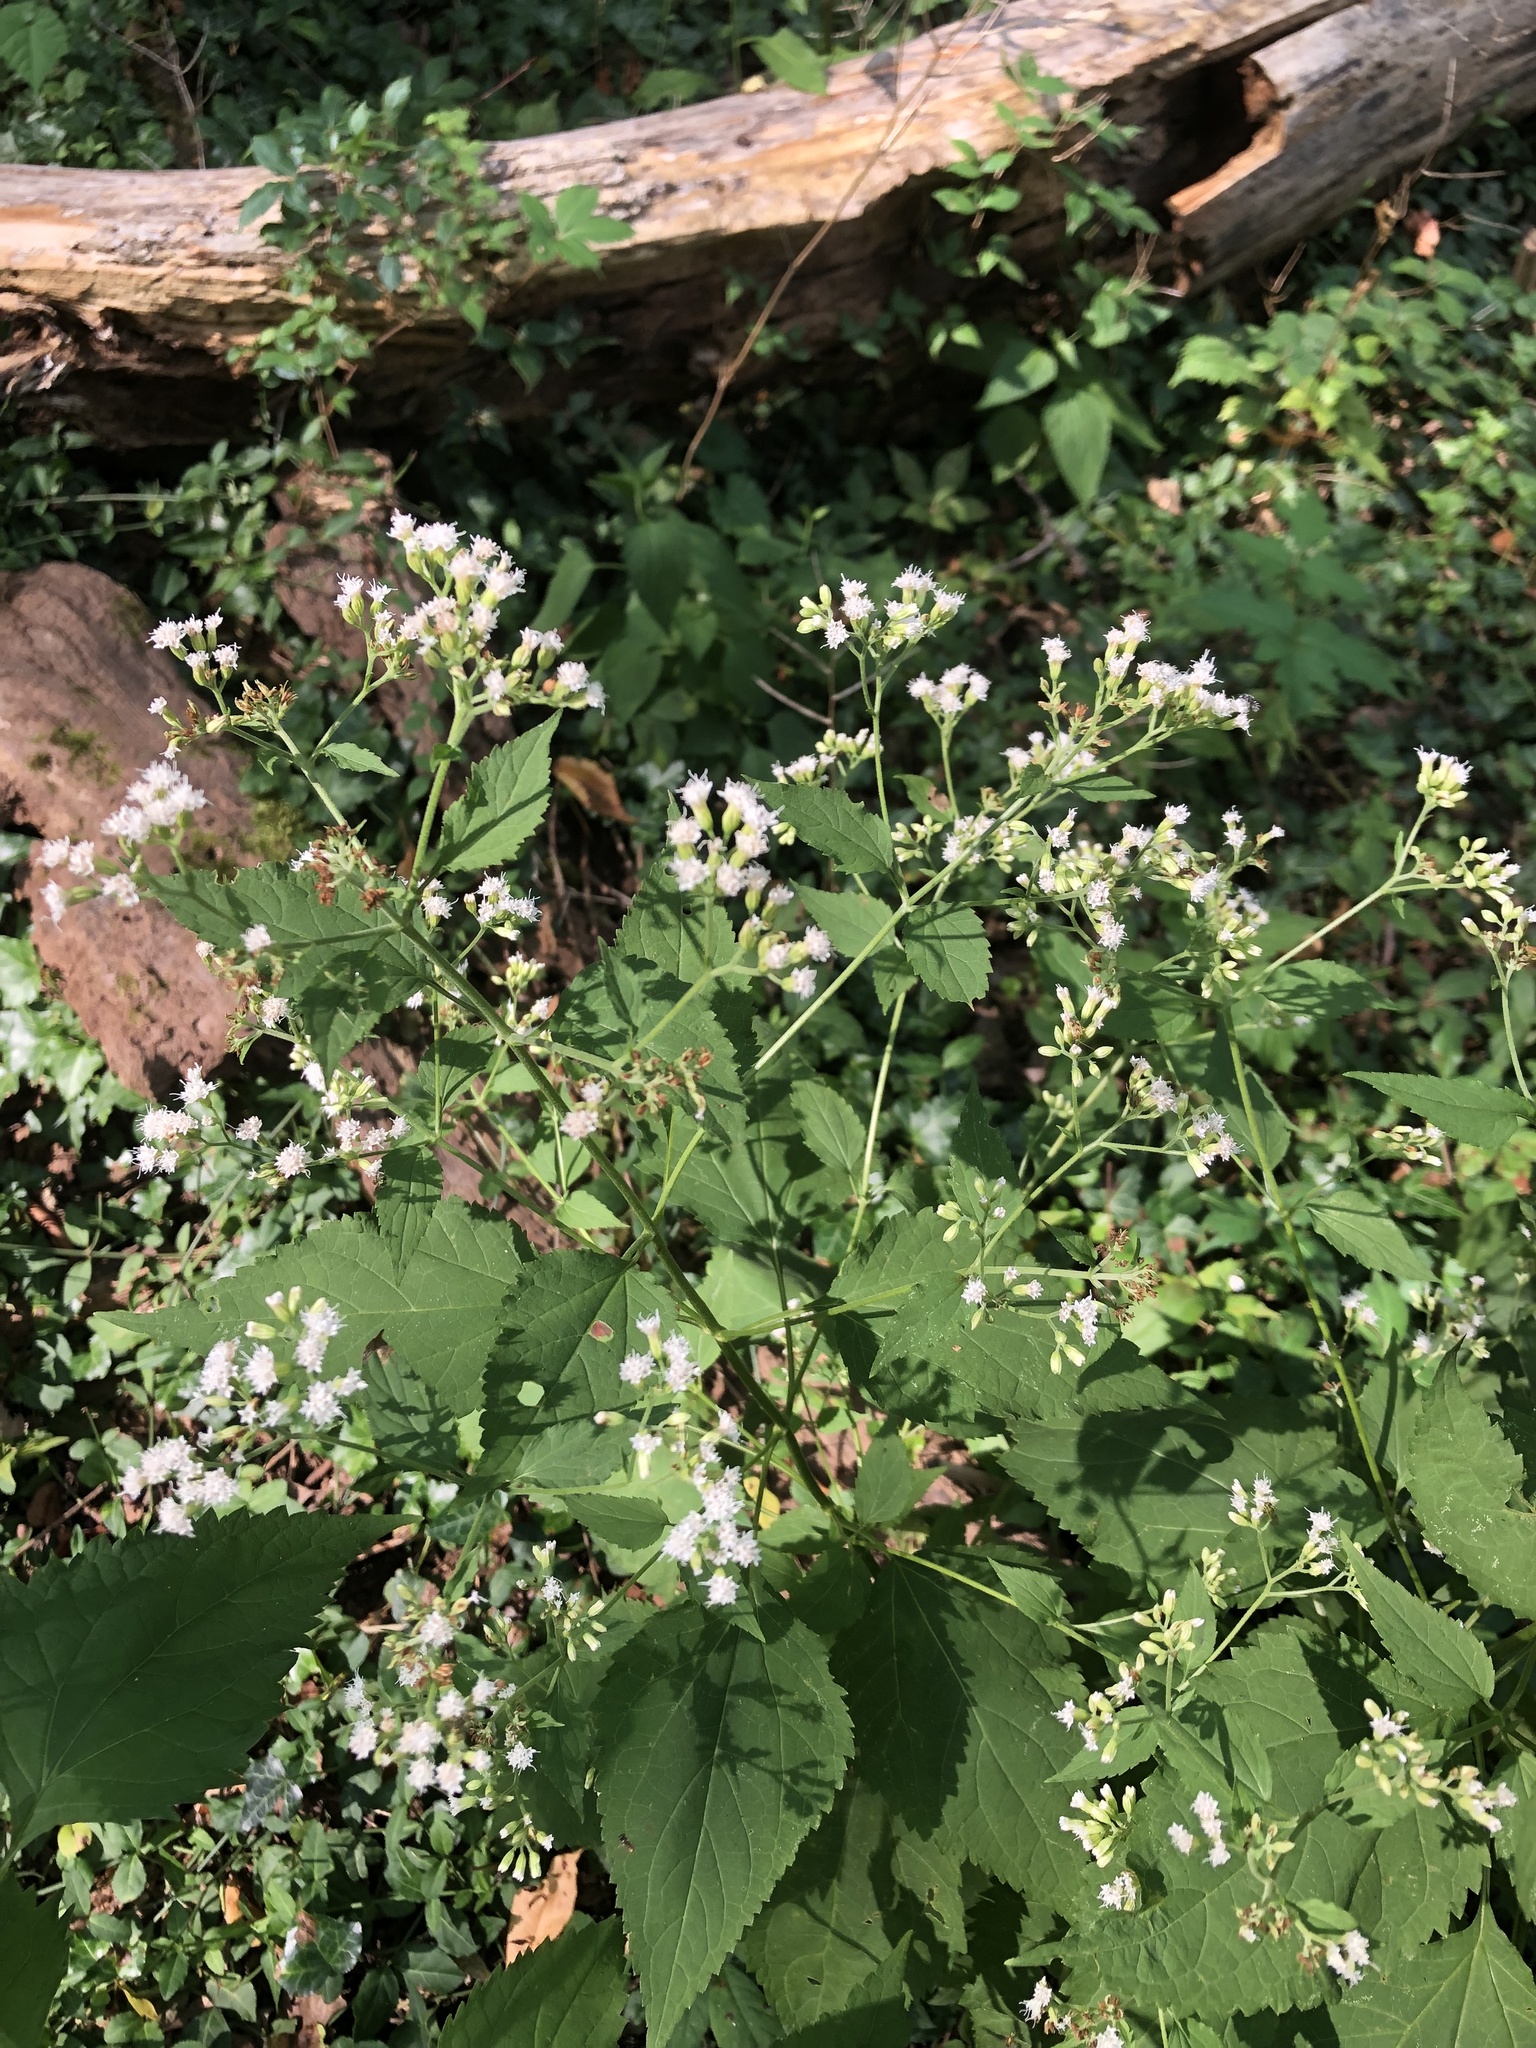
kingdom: Plantae
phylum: Tracheophyta
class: Magnoliopsida
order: Asterales
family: Asteraceae
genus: Ageratina
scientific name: Ageratina altissima
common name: White snakeroot
